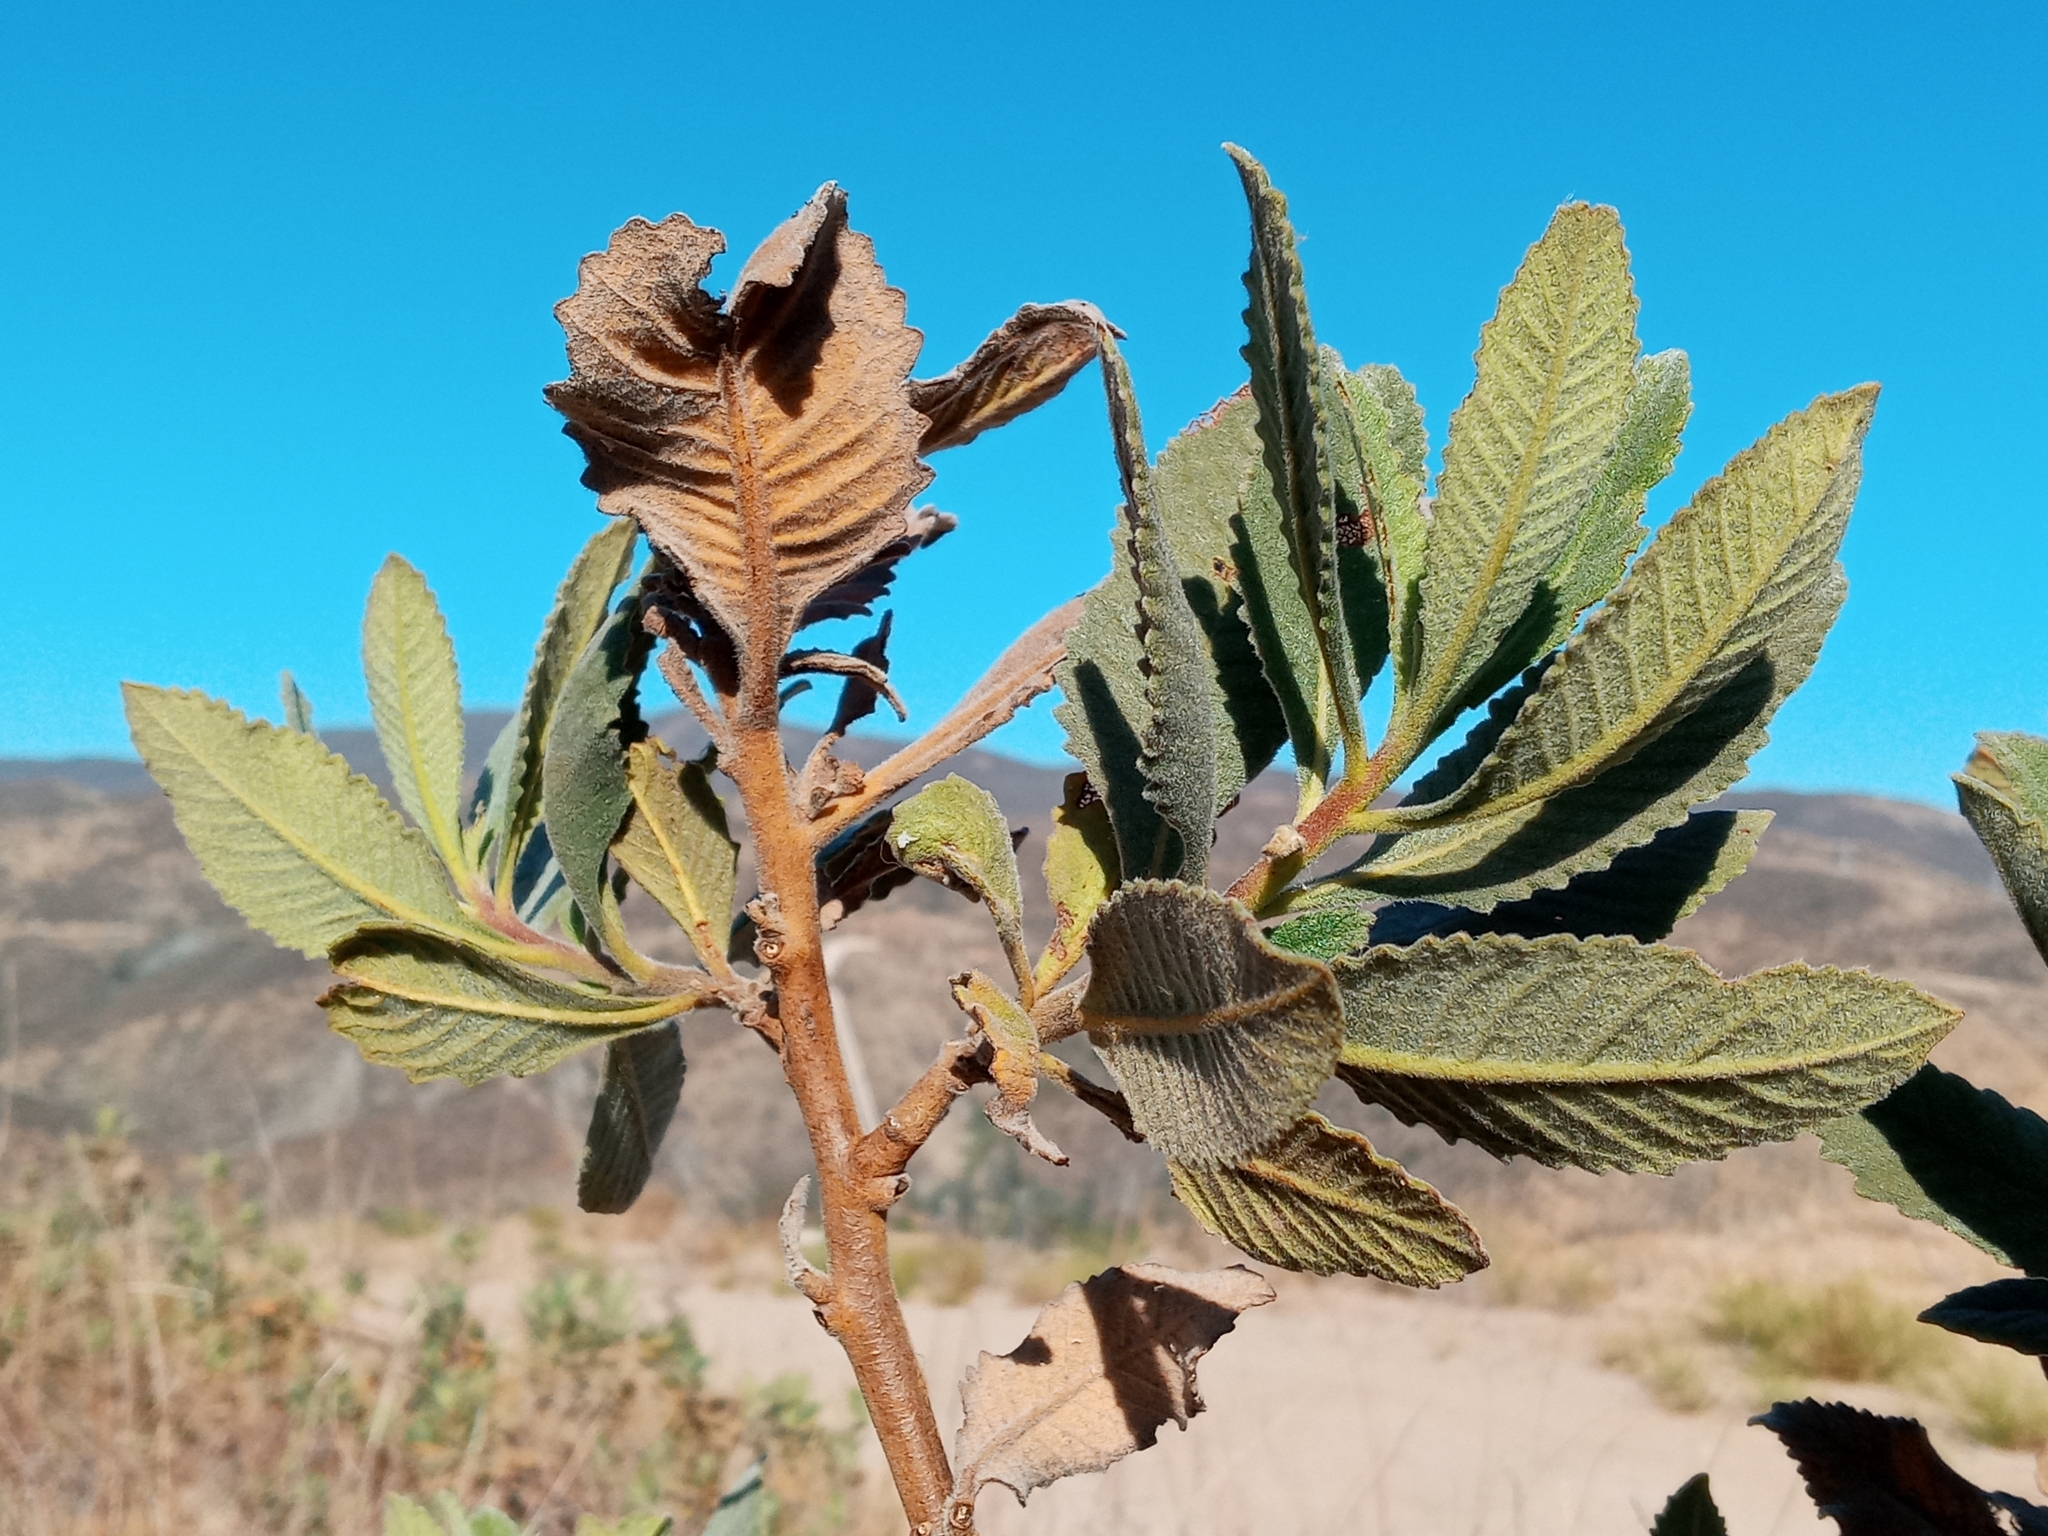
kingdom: Plantae
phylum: Tracheophyta
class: Magnoliopsida
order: Boraginales
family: Namaceae
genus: Eriodictyon
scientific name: Eriodictyon crassifolium
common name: Thick-leaf yerba-santa
